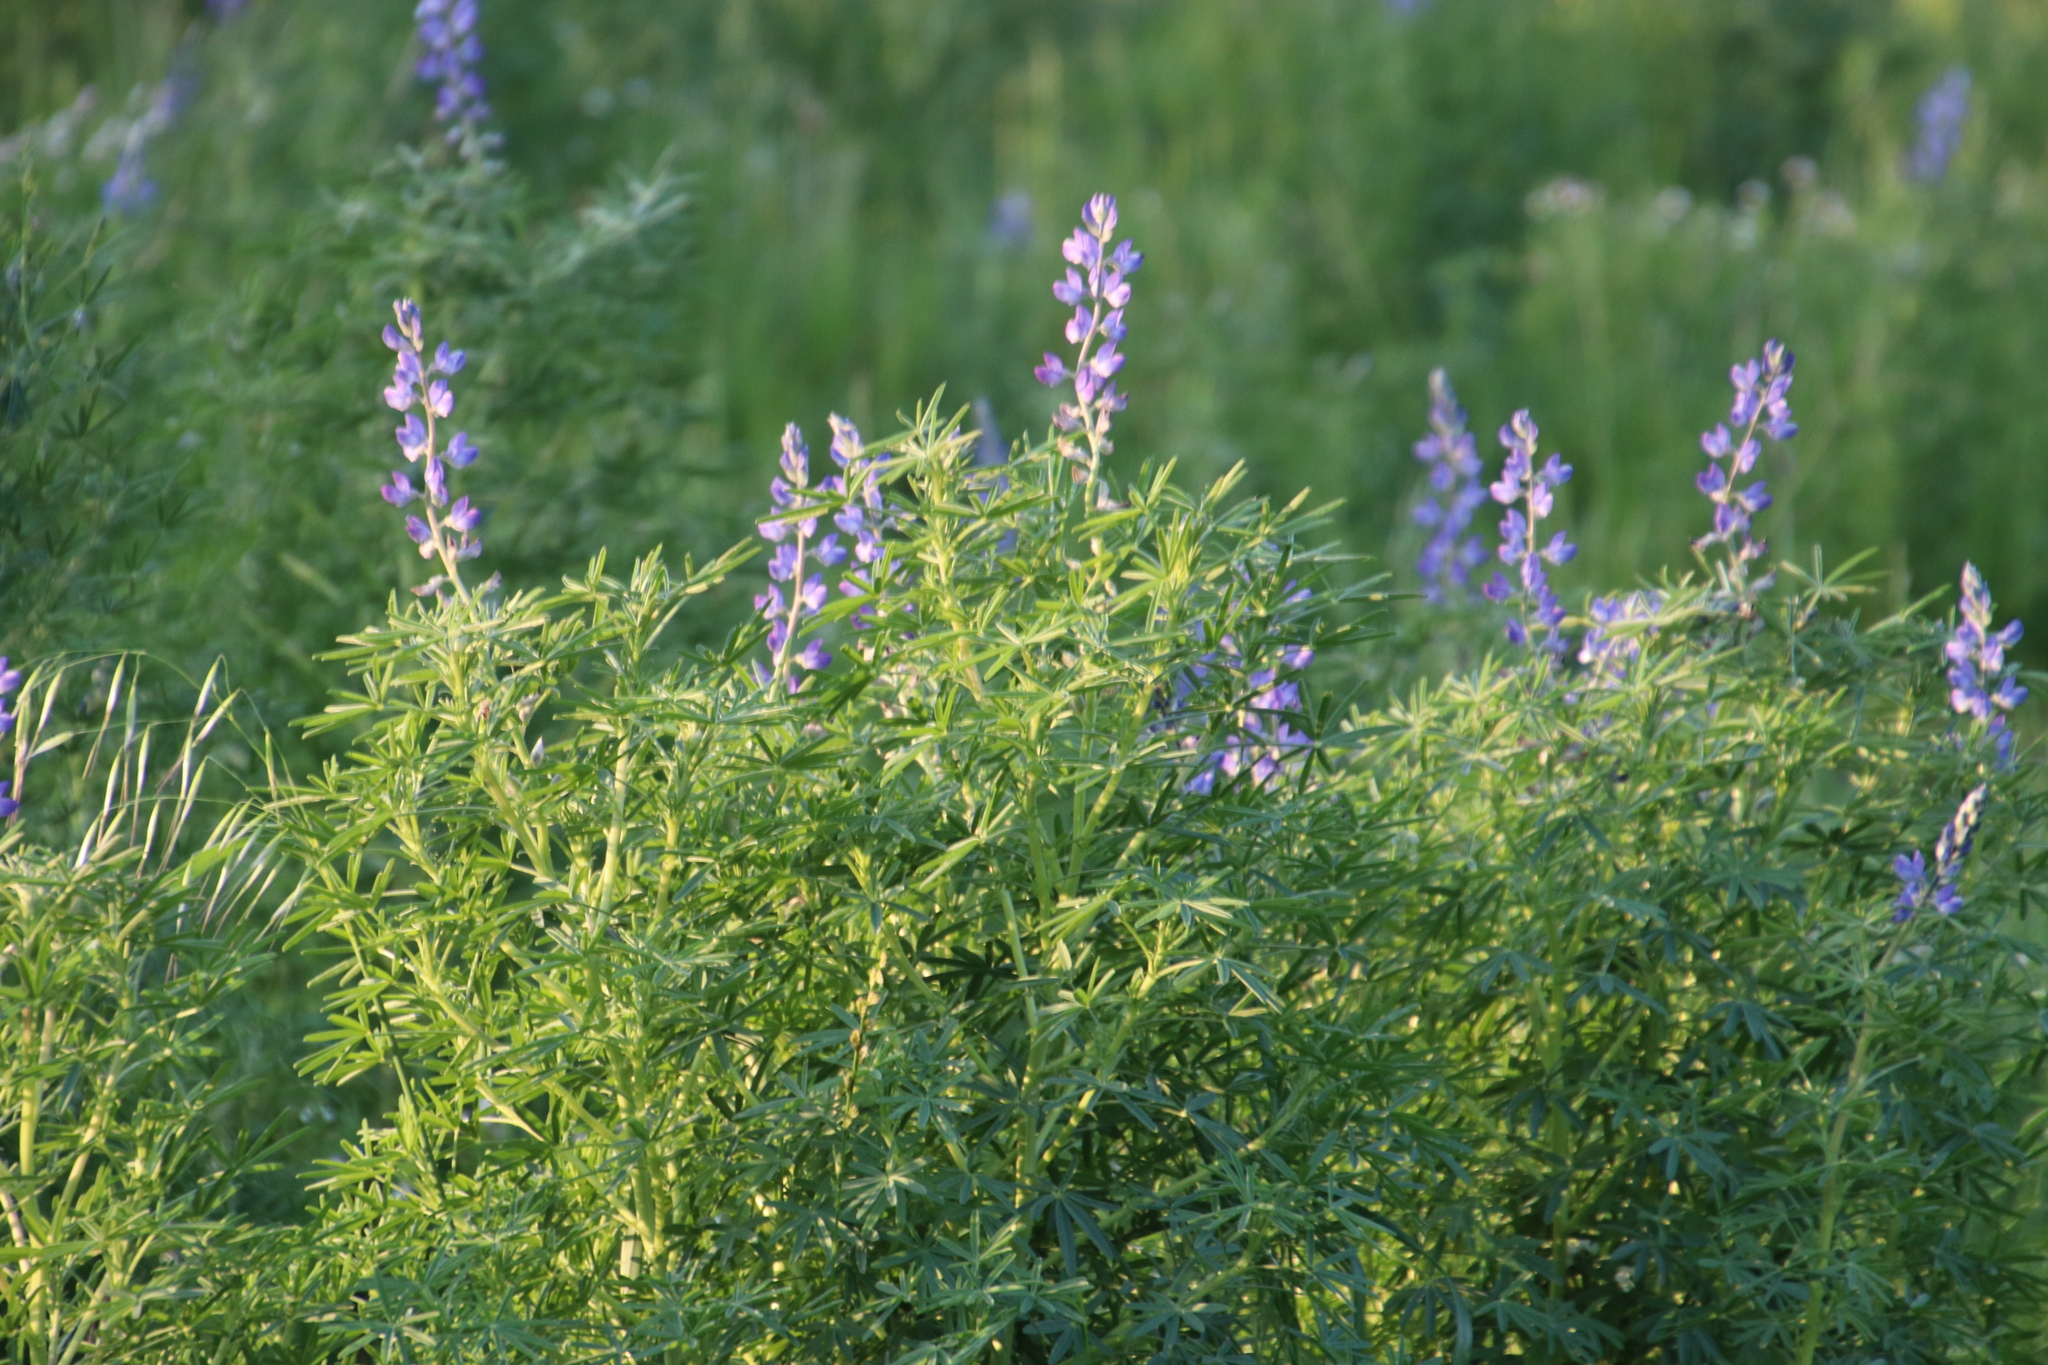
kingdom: Plantae
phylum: Tracheophyta
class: Magnoliopsida
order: Fabales
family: Fabaceae
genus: Lupinus
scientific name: Lupinus angustifolius
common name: Narrow-leaved lupin
